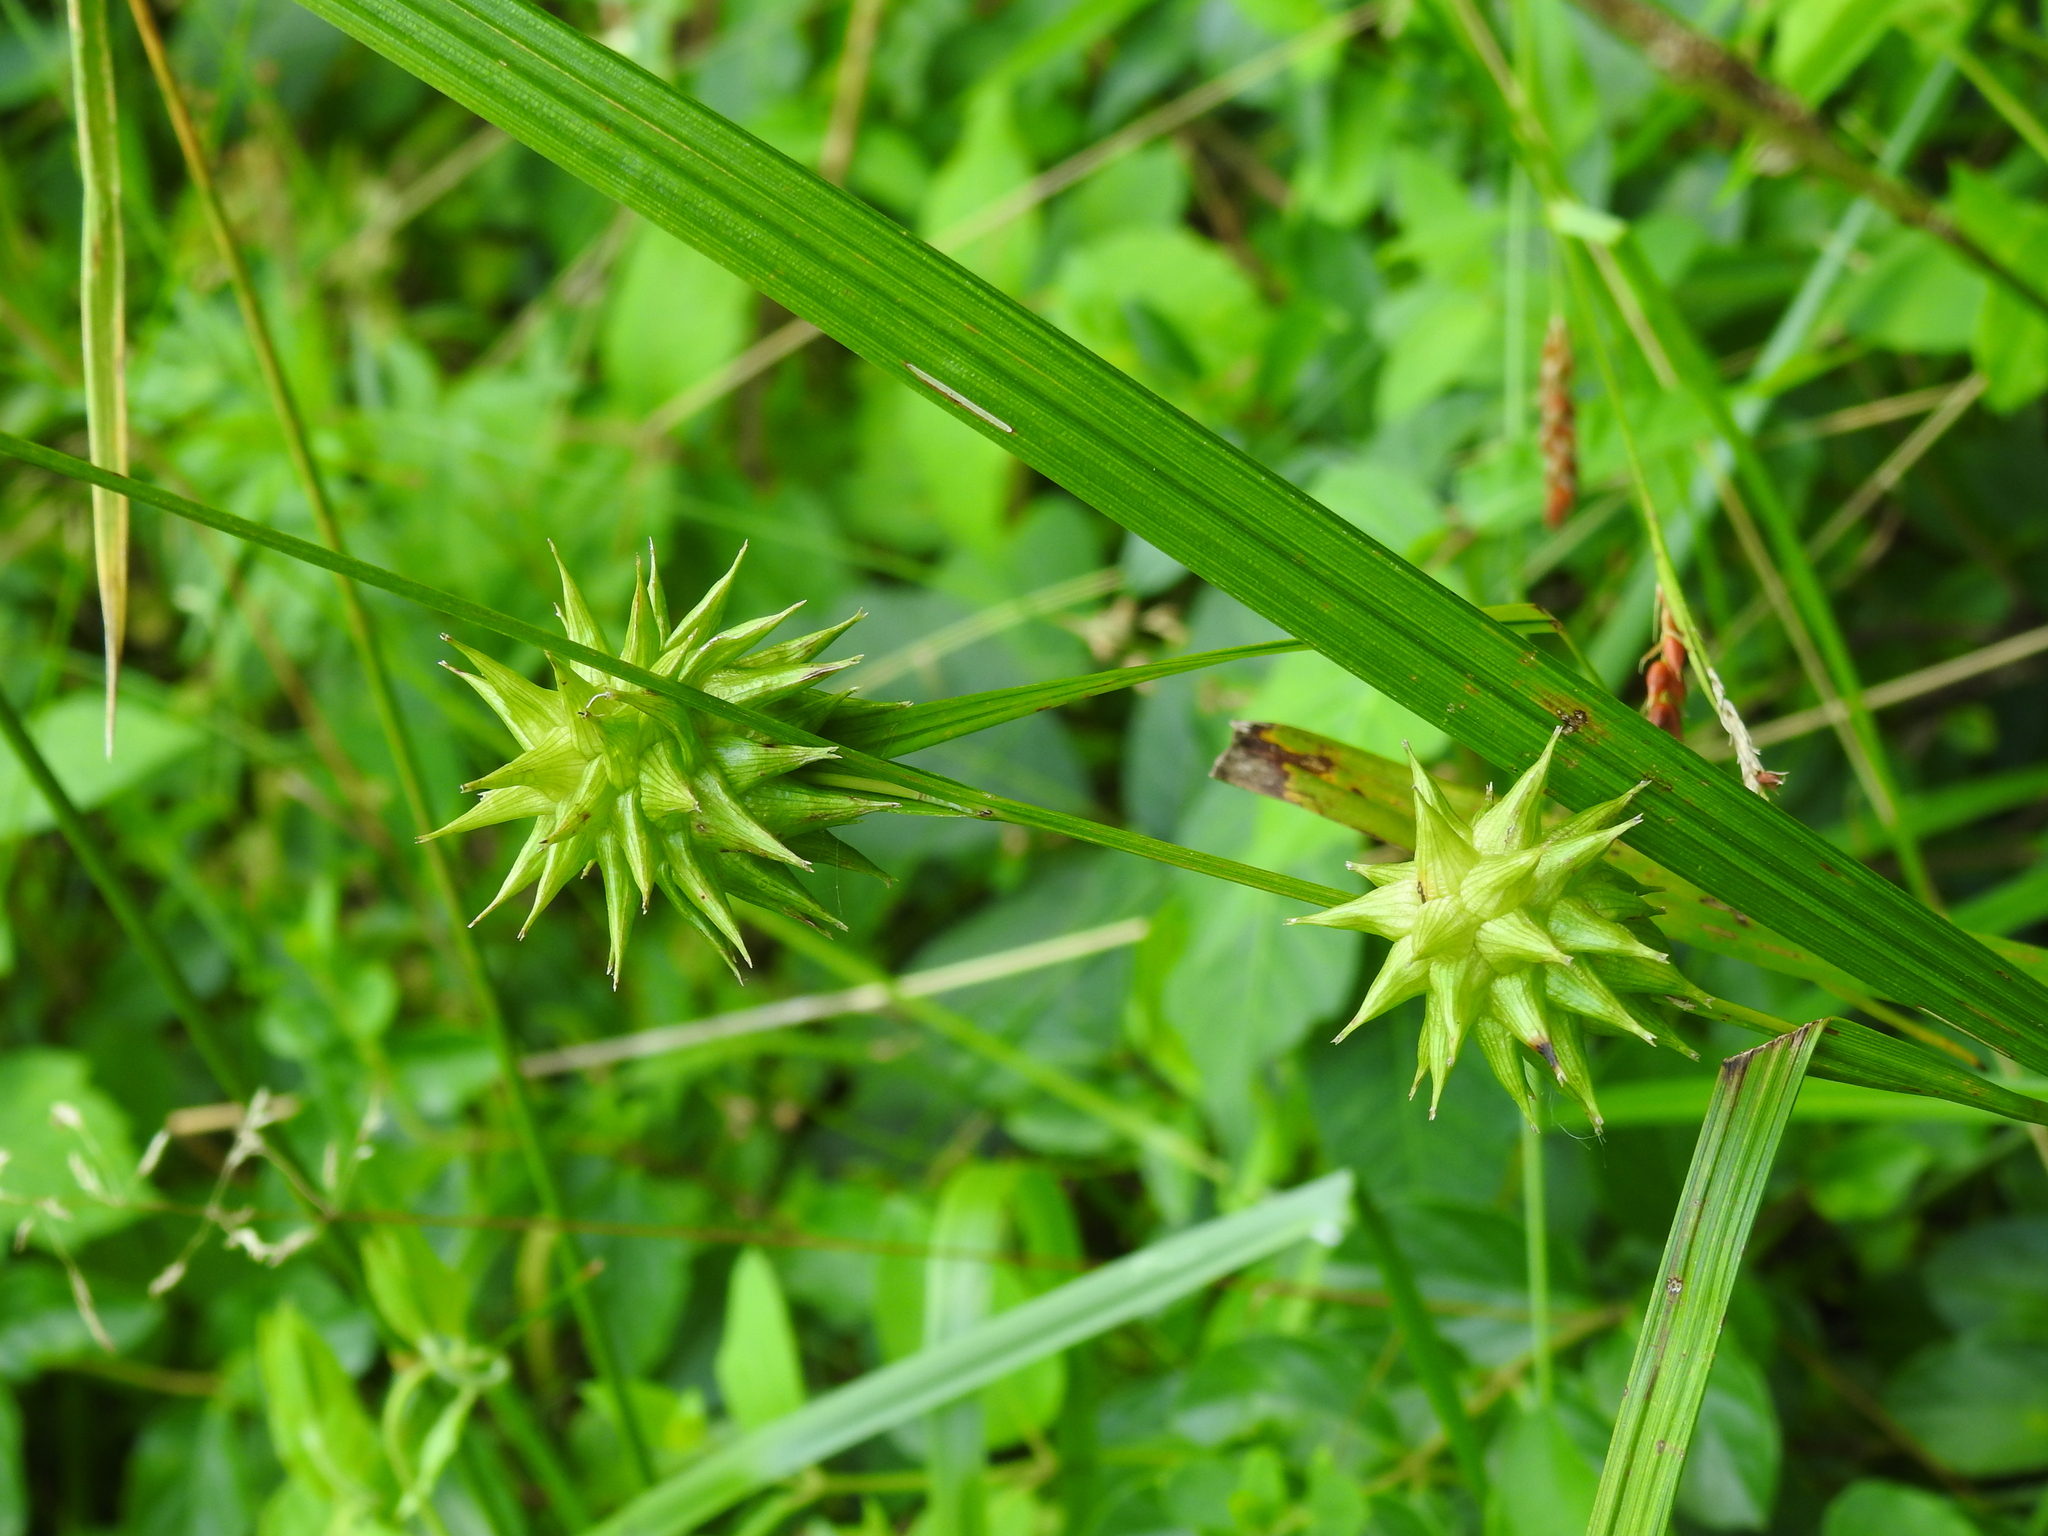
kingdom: Plantae
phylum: Tracheophyta
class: Liliopsida
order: Poales
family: Cyperaceae
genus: Carex
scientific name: Carex grayi
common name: Asa gray's sedge
